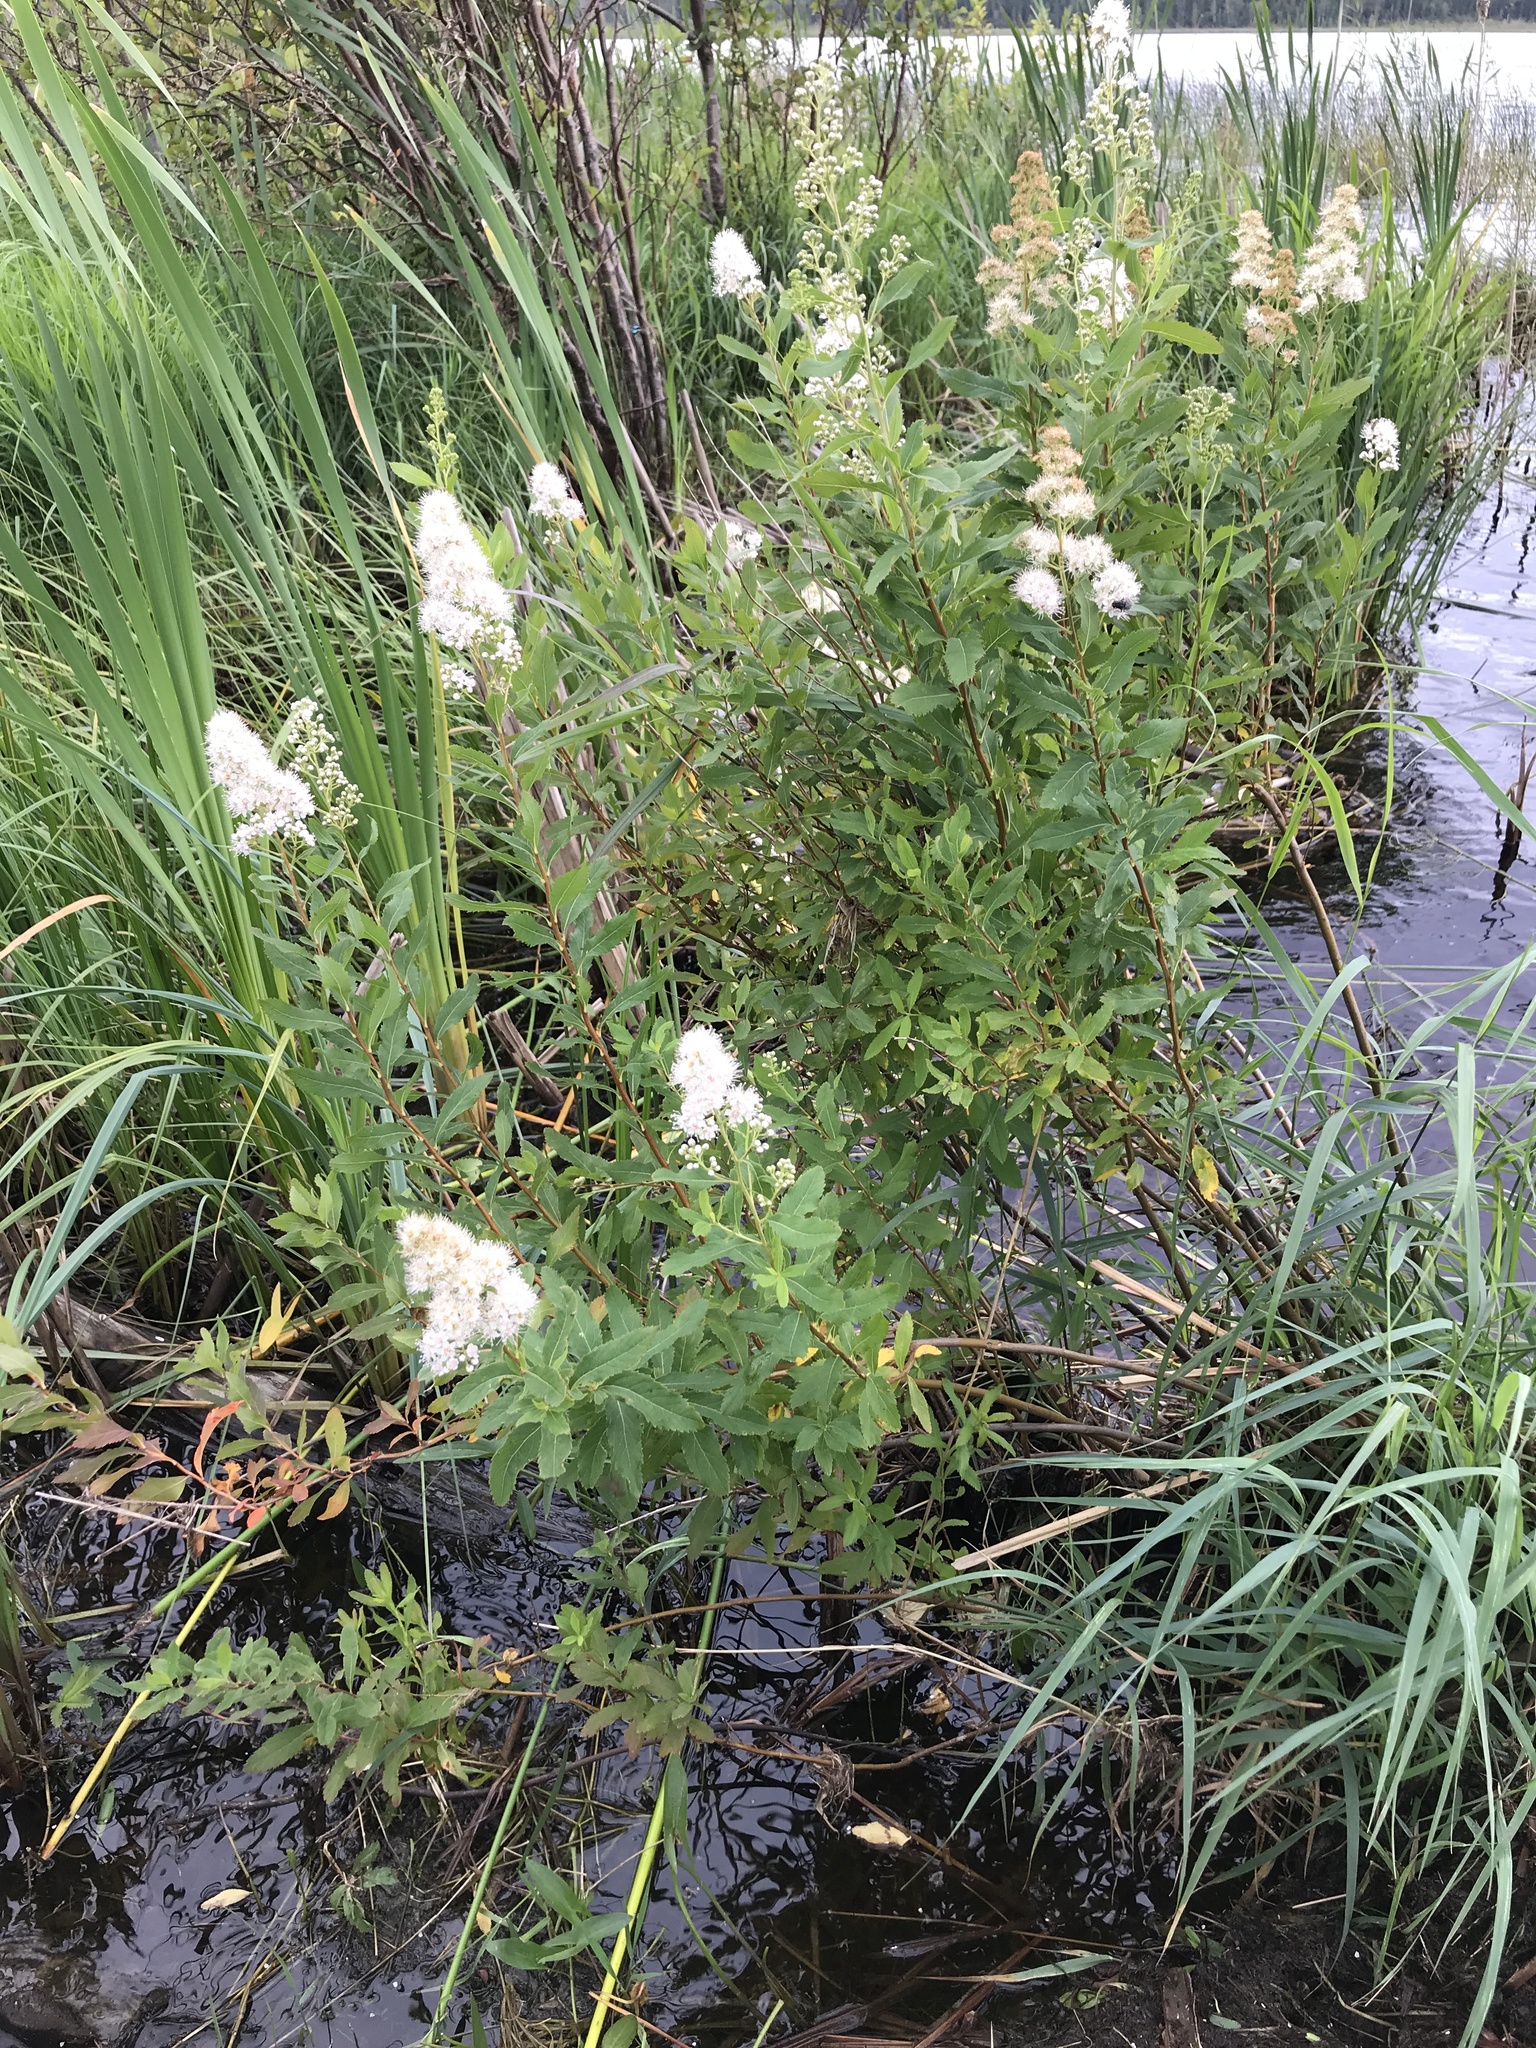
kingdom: Plantae
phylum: Tracheophyta
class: Magnoliopsida
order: Rosales
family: Rosaceae
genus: Spiraea
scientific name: Spiraea alba
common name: Pale bridewort
